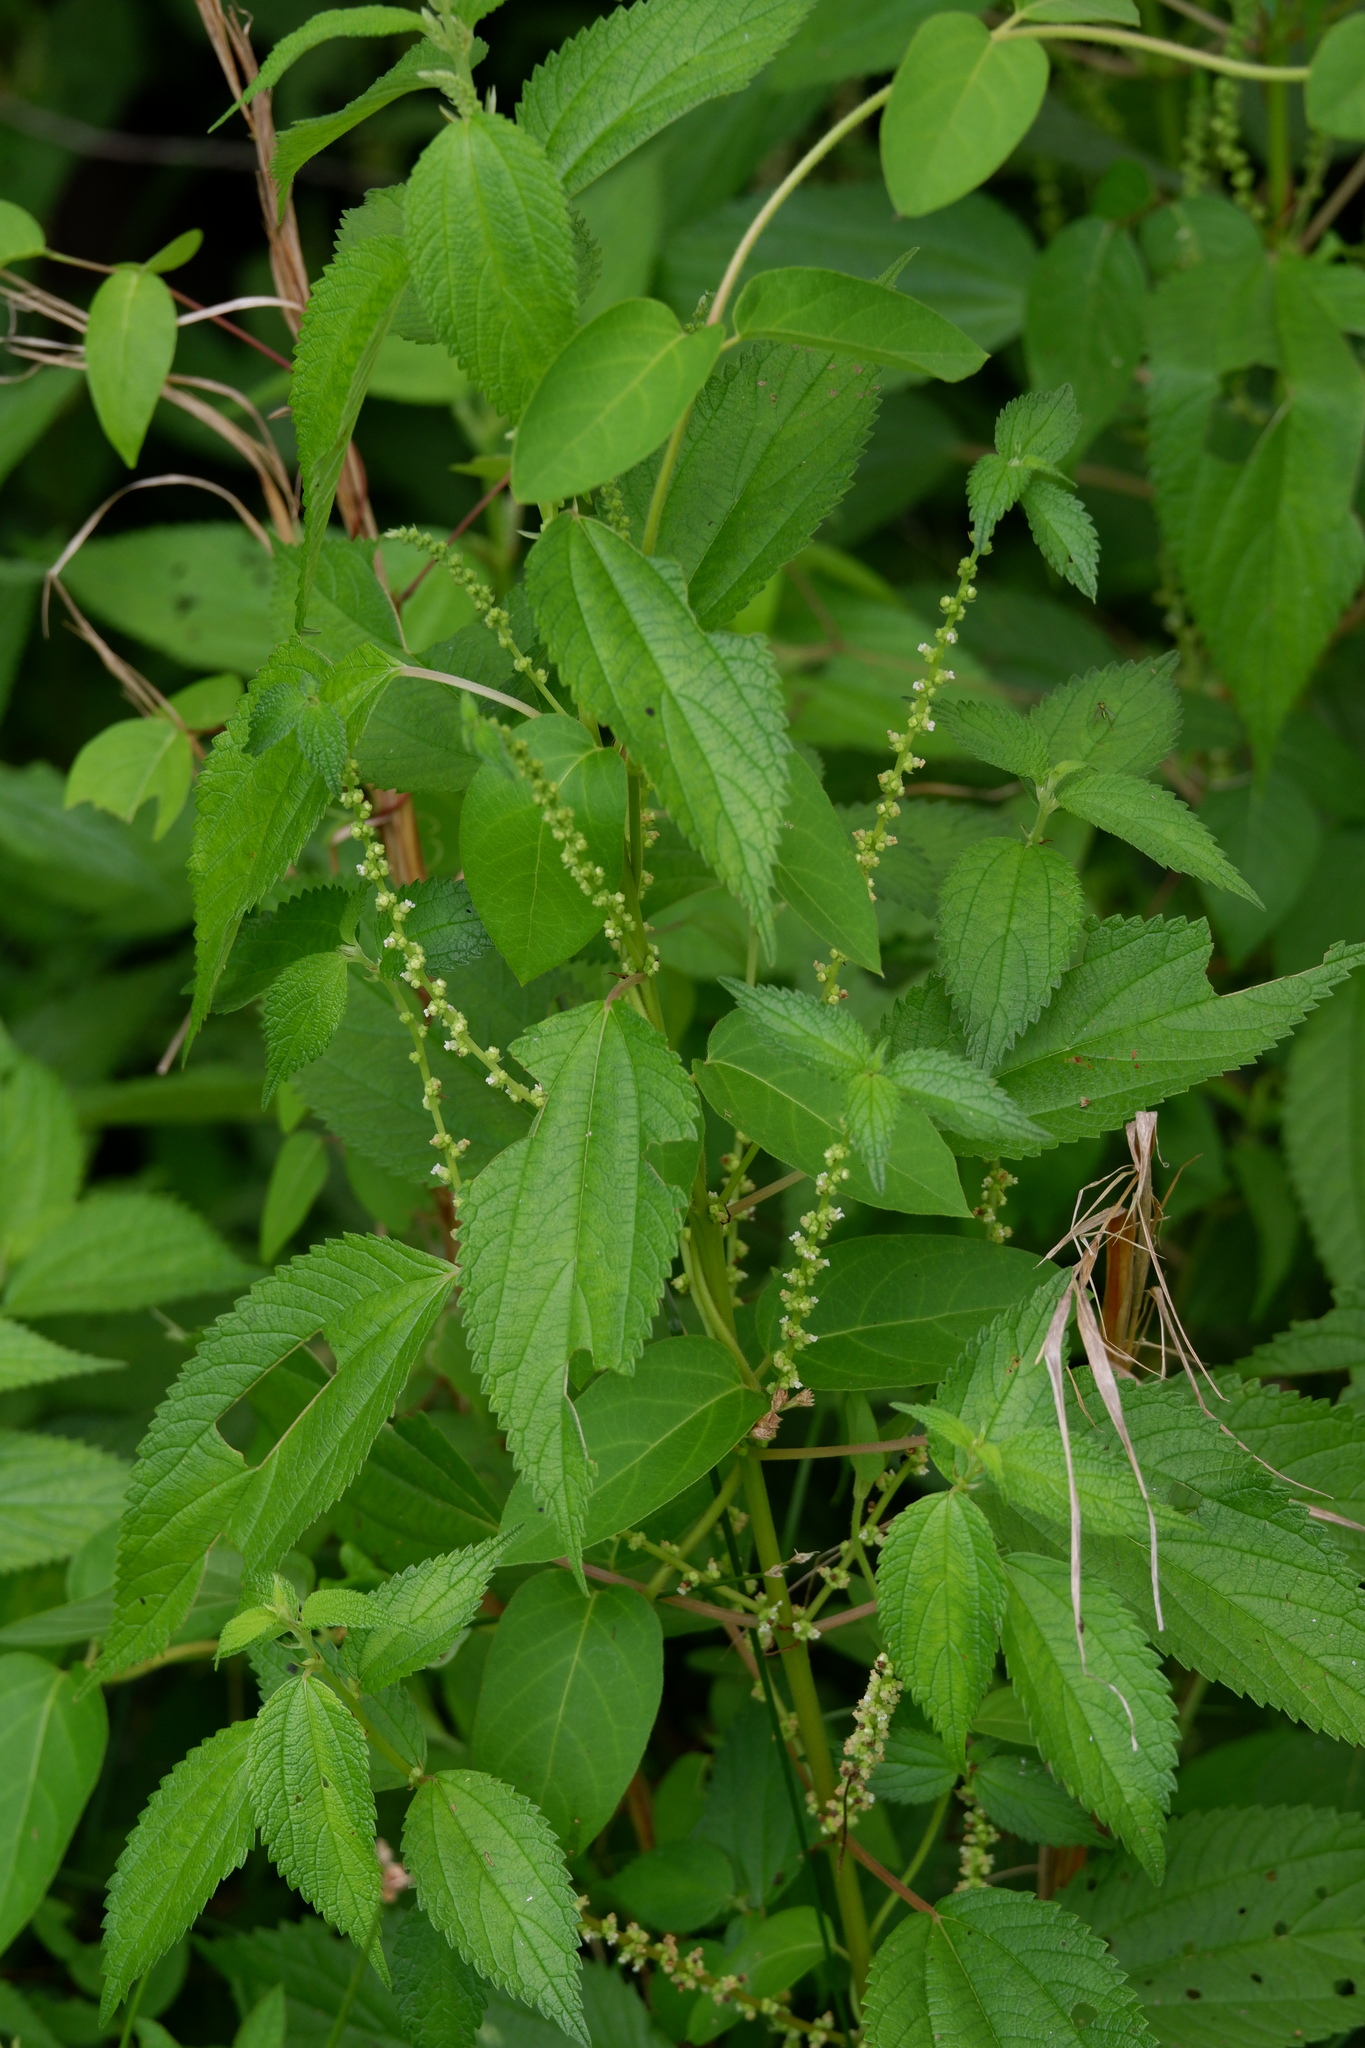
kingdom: Plantae
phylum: Tracheophyta
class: Magnoliopsida
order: Rosales
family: Urticaceae
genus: Boehmeria
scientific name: Boehmeria cylindrica
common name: Bog-hemp
